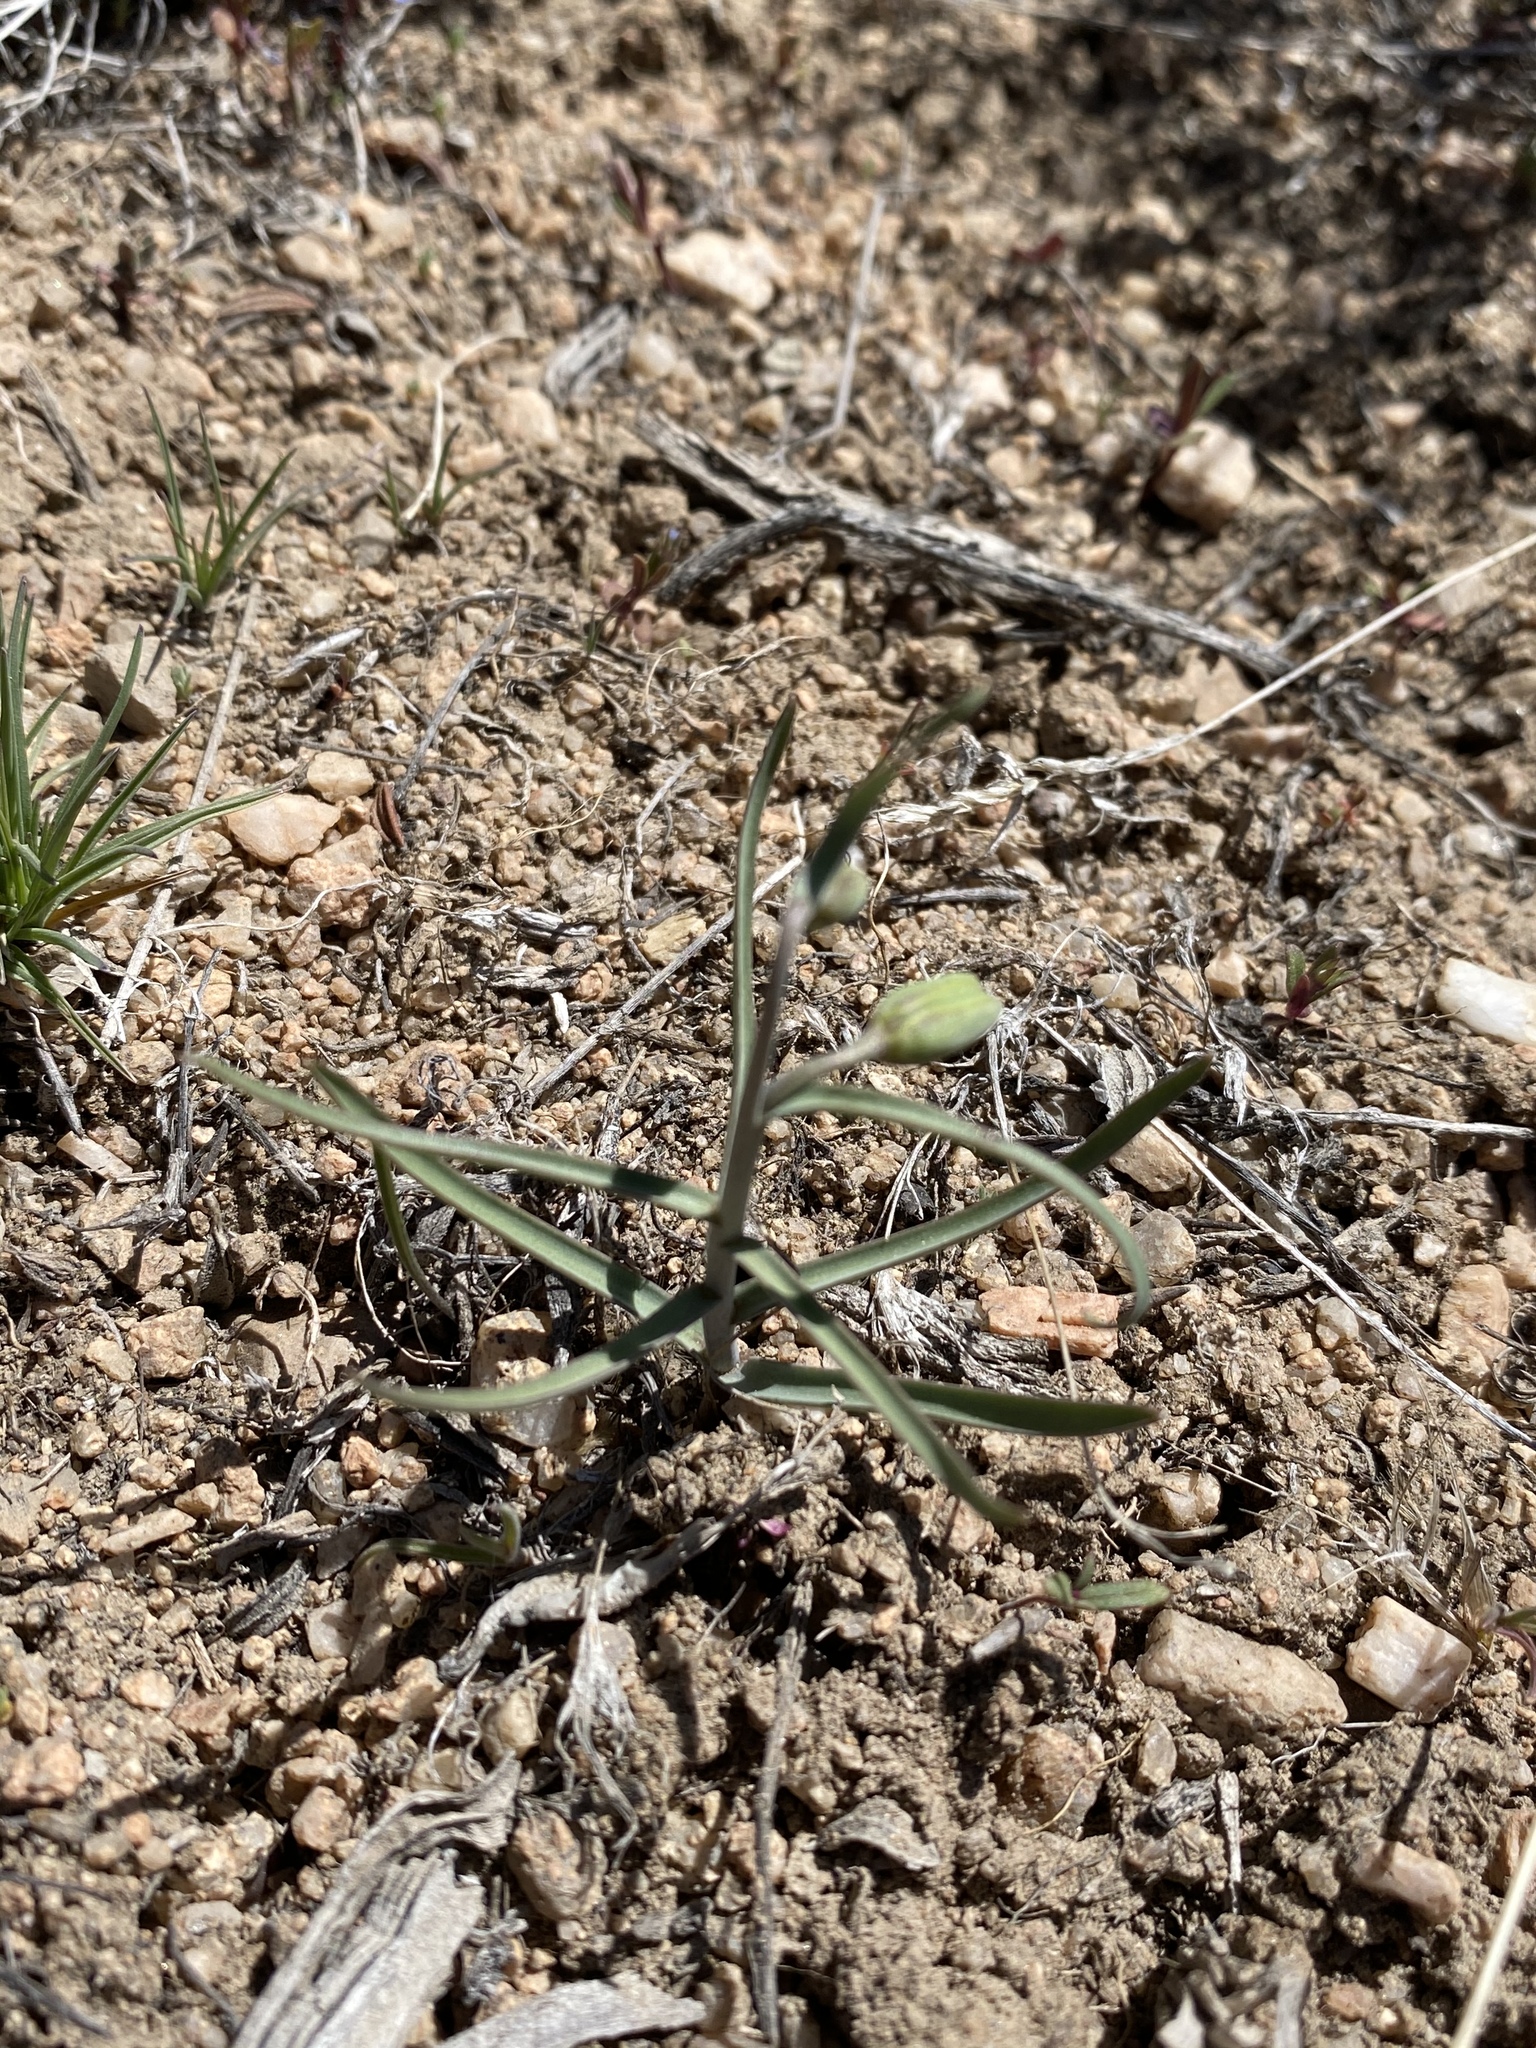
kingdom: Plantae
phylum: Tracheophyta
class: Liliopsida
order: Liliales
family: Liliaceae
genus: Fritillaria
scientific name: Fritillaria atropurpurea
